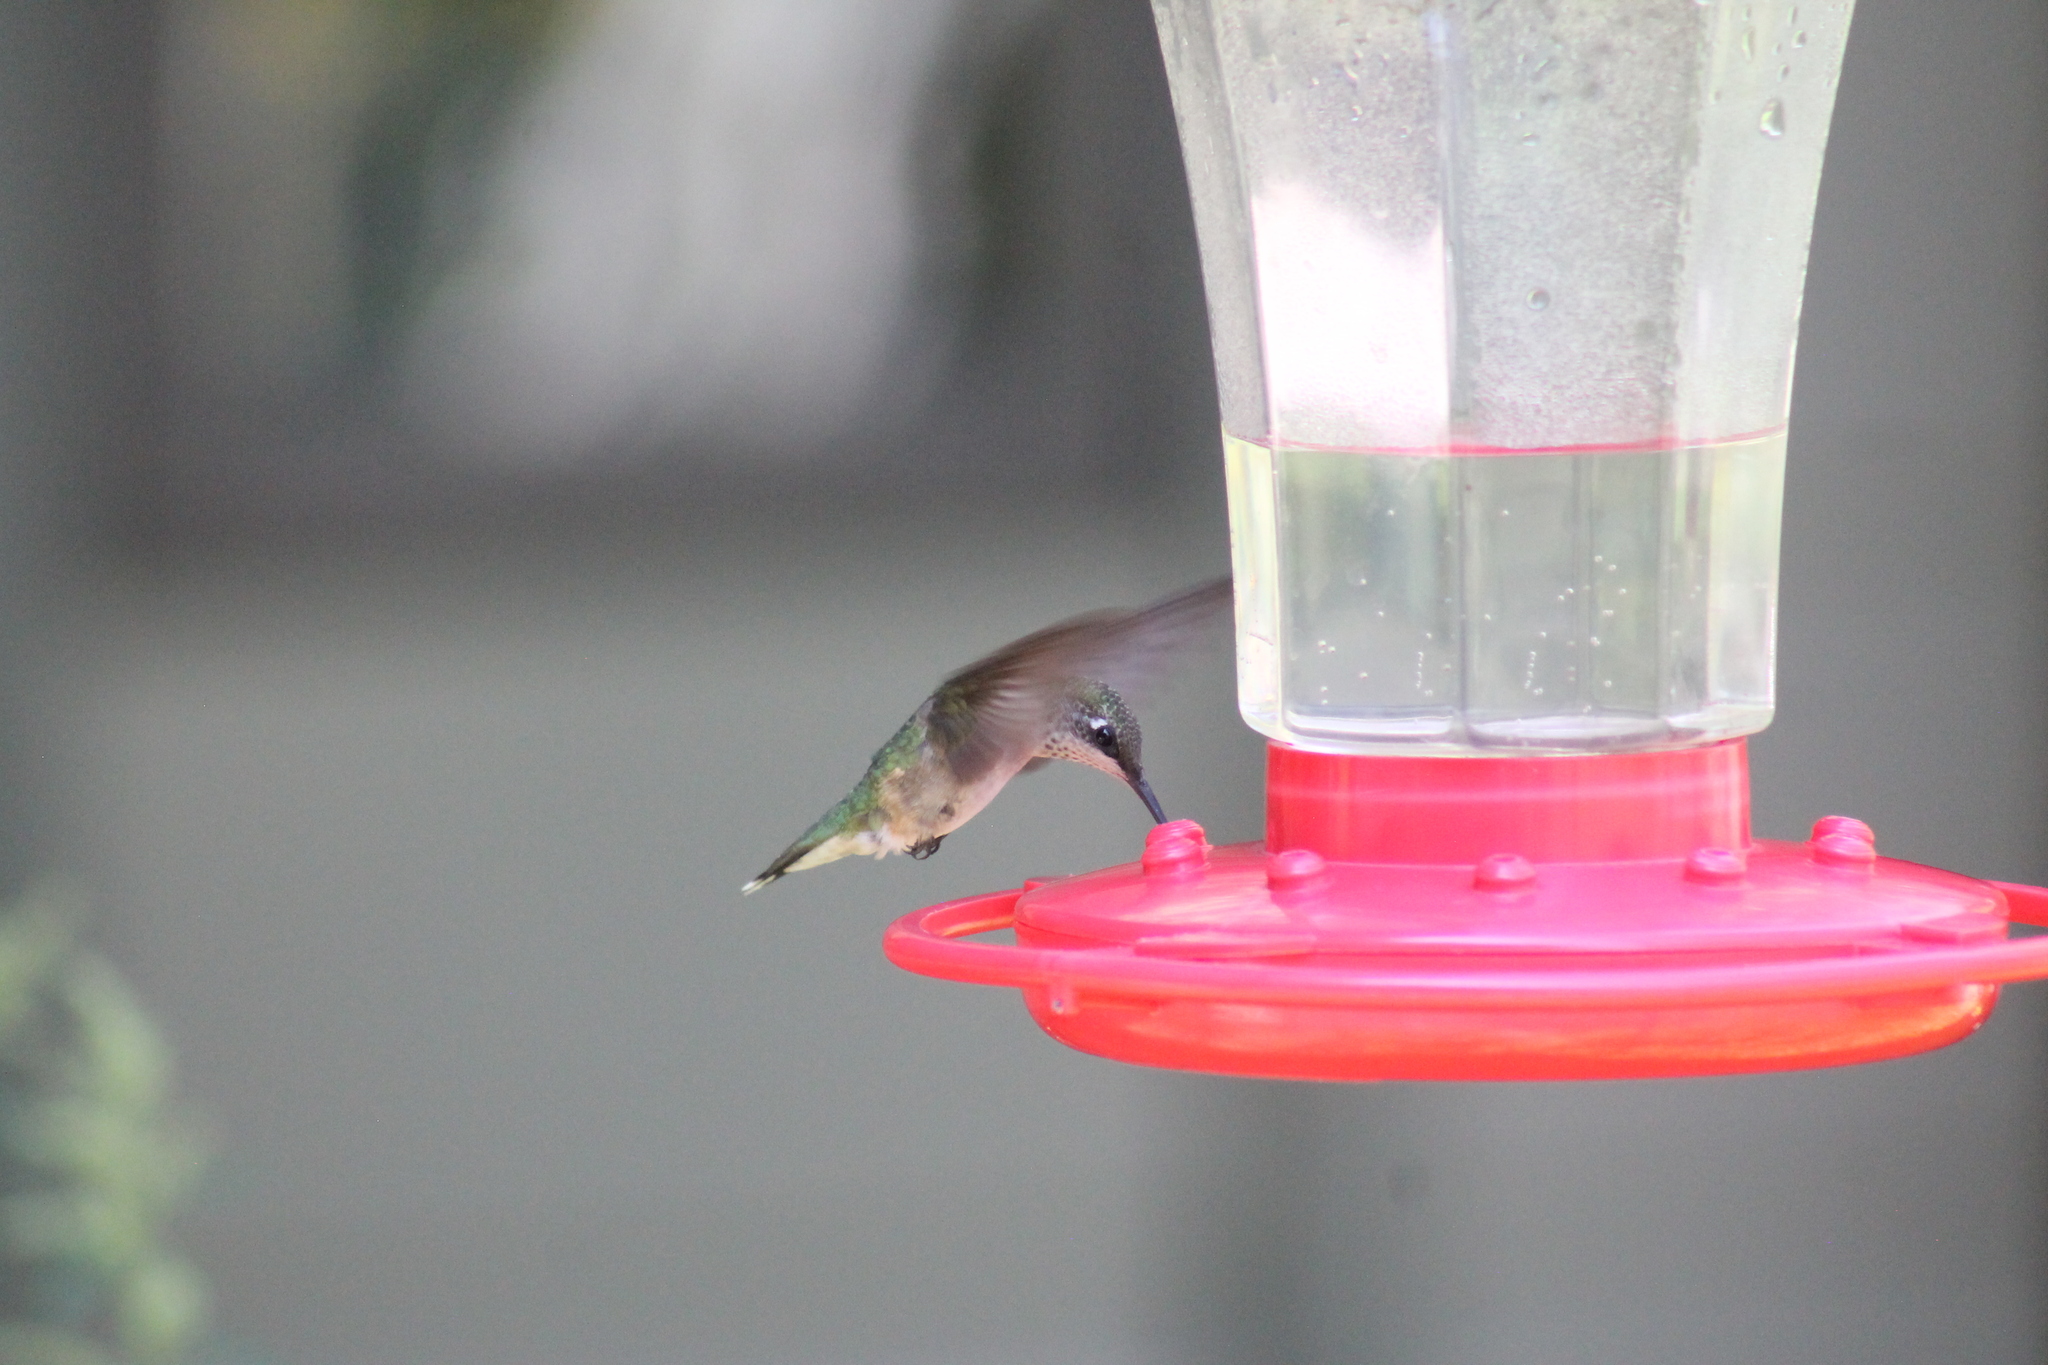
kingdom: Animalia
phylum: Chordata
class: Aves
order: Apodiformes
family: Trochilidae
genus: Archilochus
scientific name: Archilochus colubris
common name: Ruby-throated hummingbird
